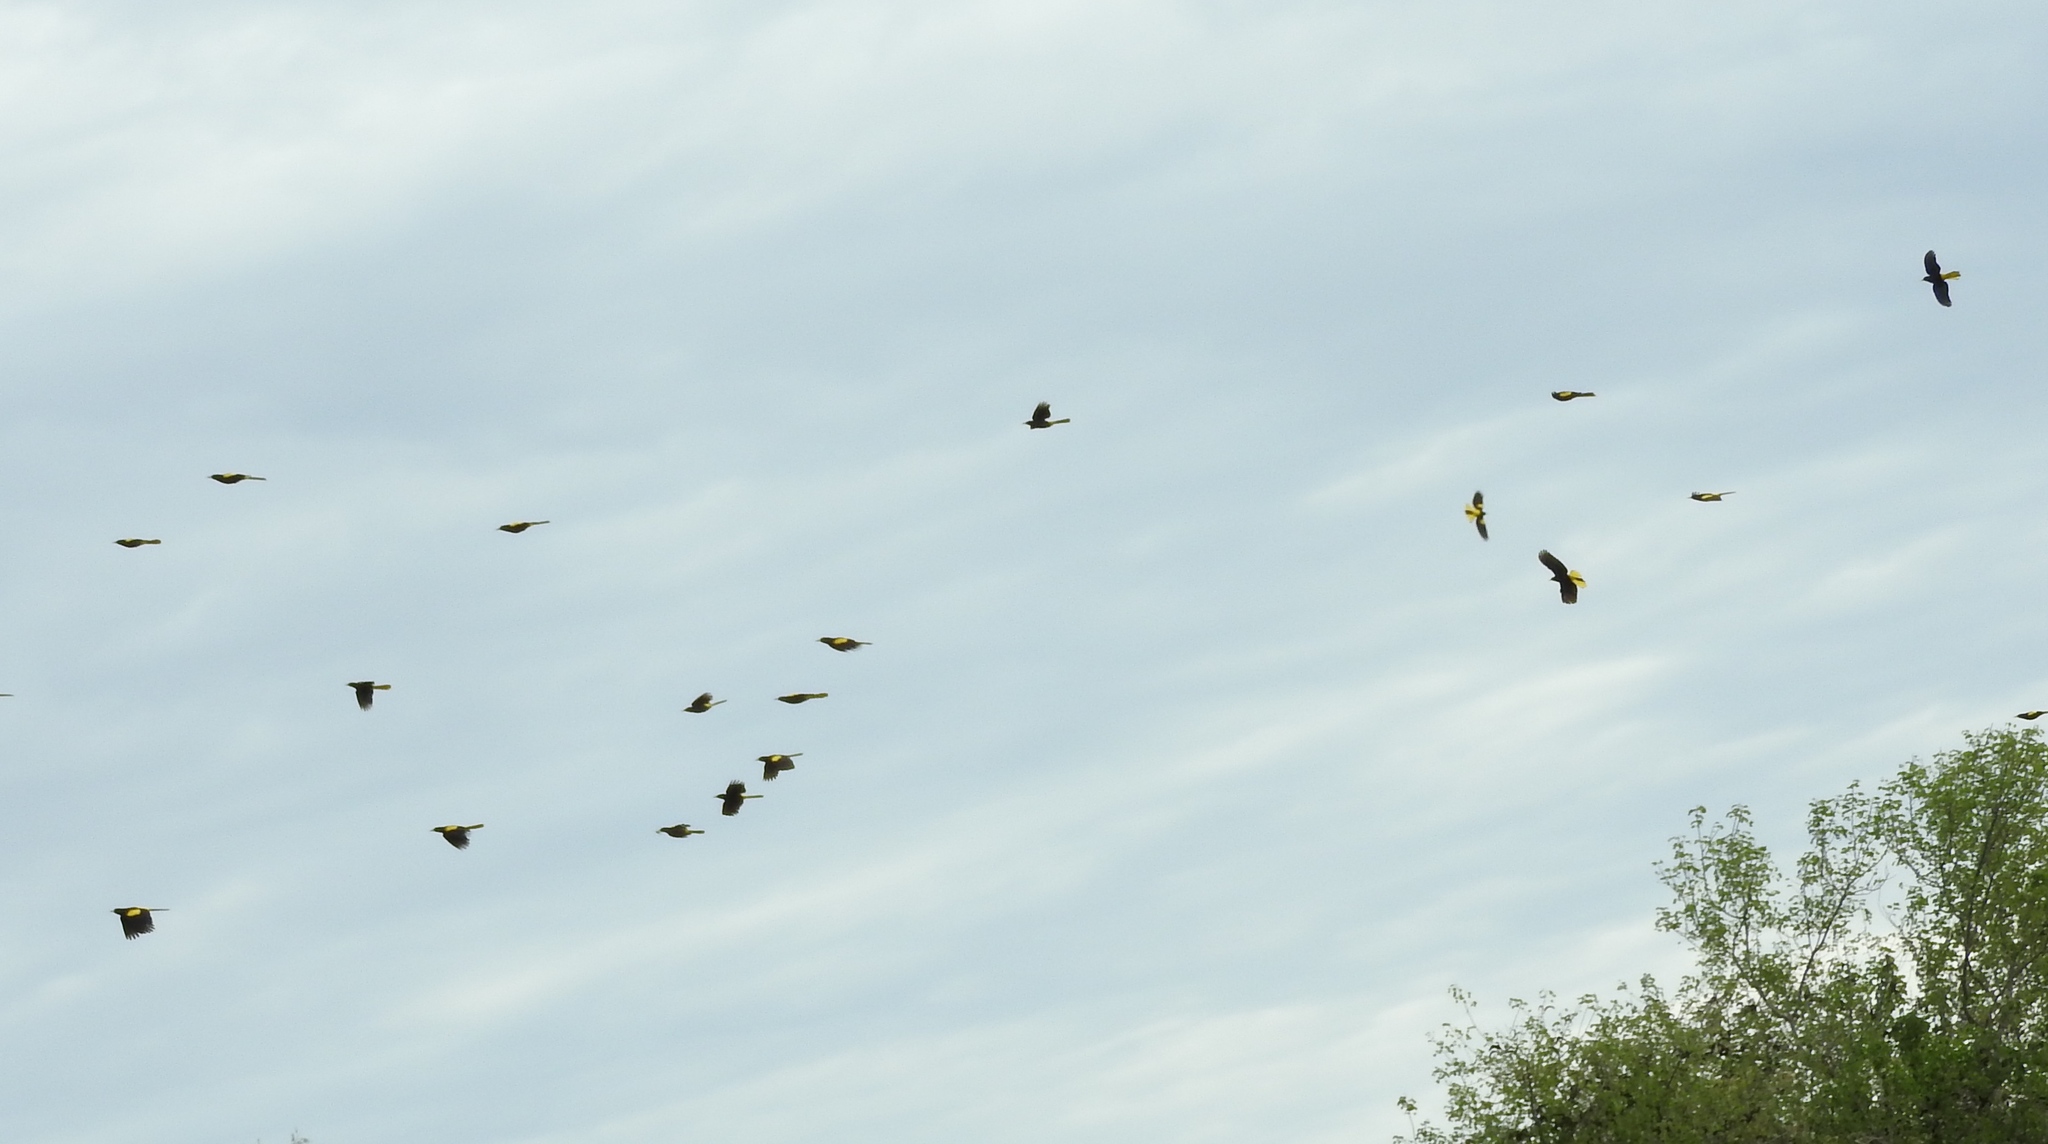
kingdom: Animalia
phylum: Chordata
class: Aves
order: Passeriformes
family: Icteridae
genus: Cacicus
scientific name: Cacicus melanicterus
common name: Yellow-winged cacique
